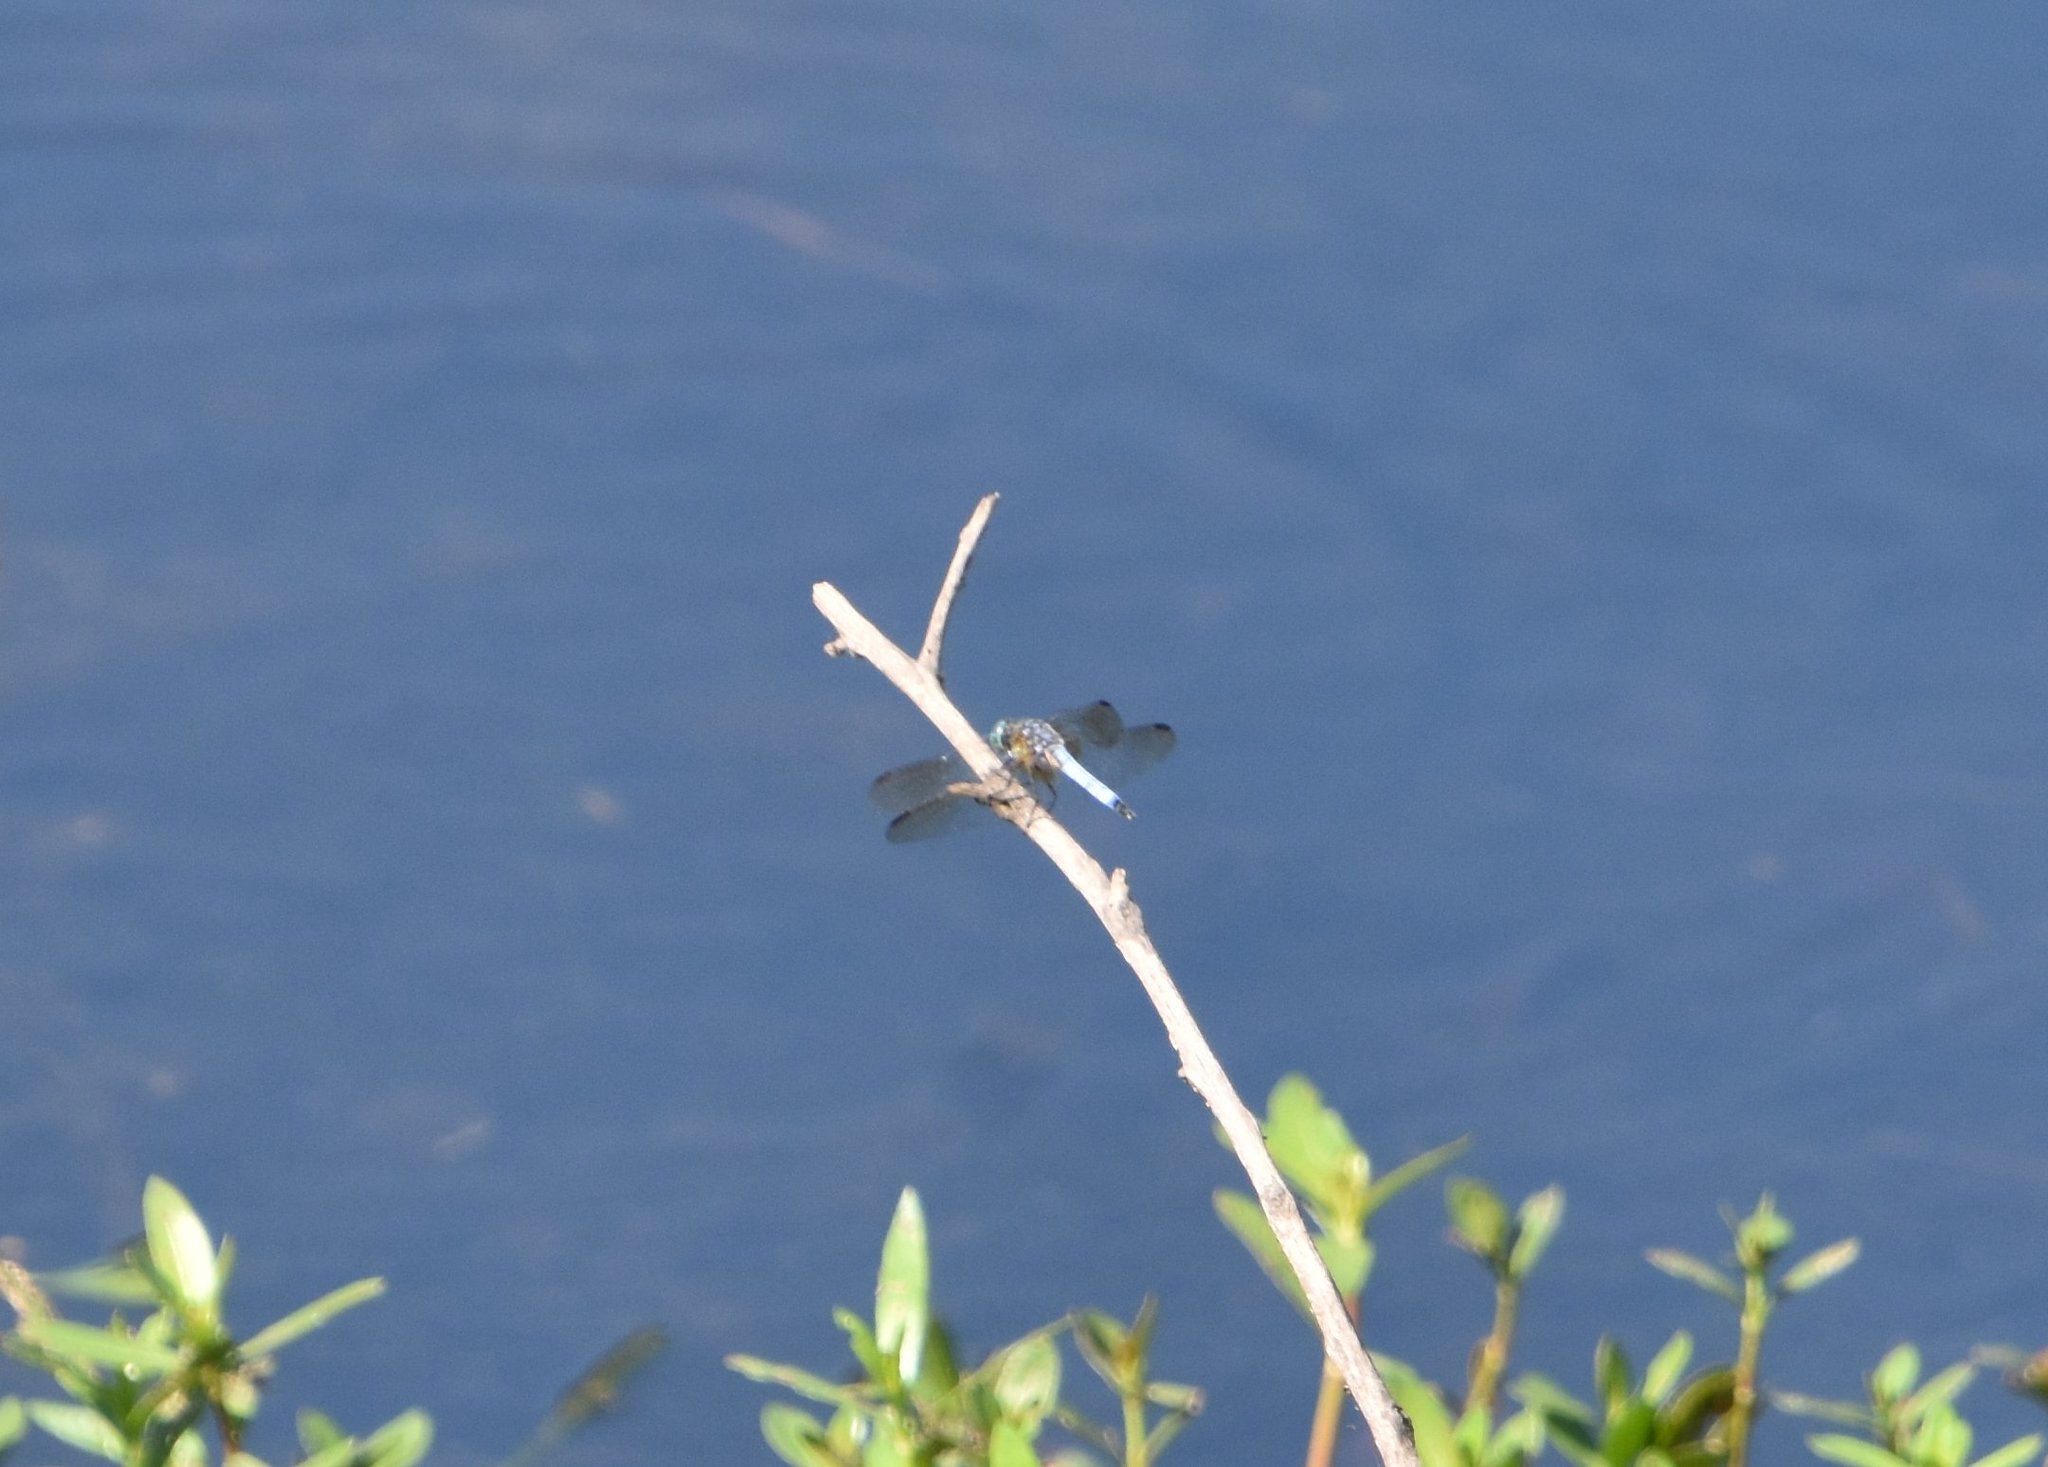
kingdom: Animalia
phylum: Arthropoda
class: Insecta
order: Odonata
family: Libellulidae
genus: Pachydiplax
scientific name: Pachydiplax longipennis
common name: Blue dasher
